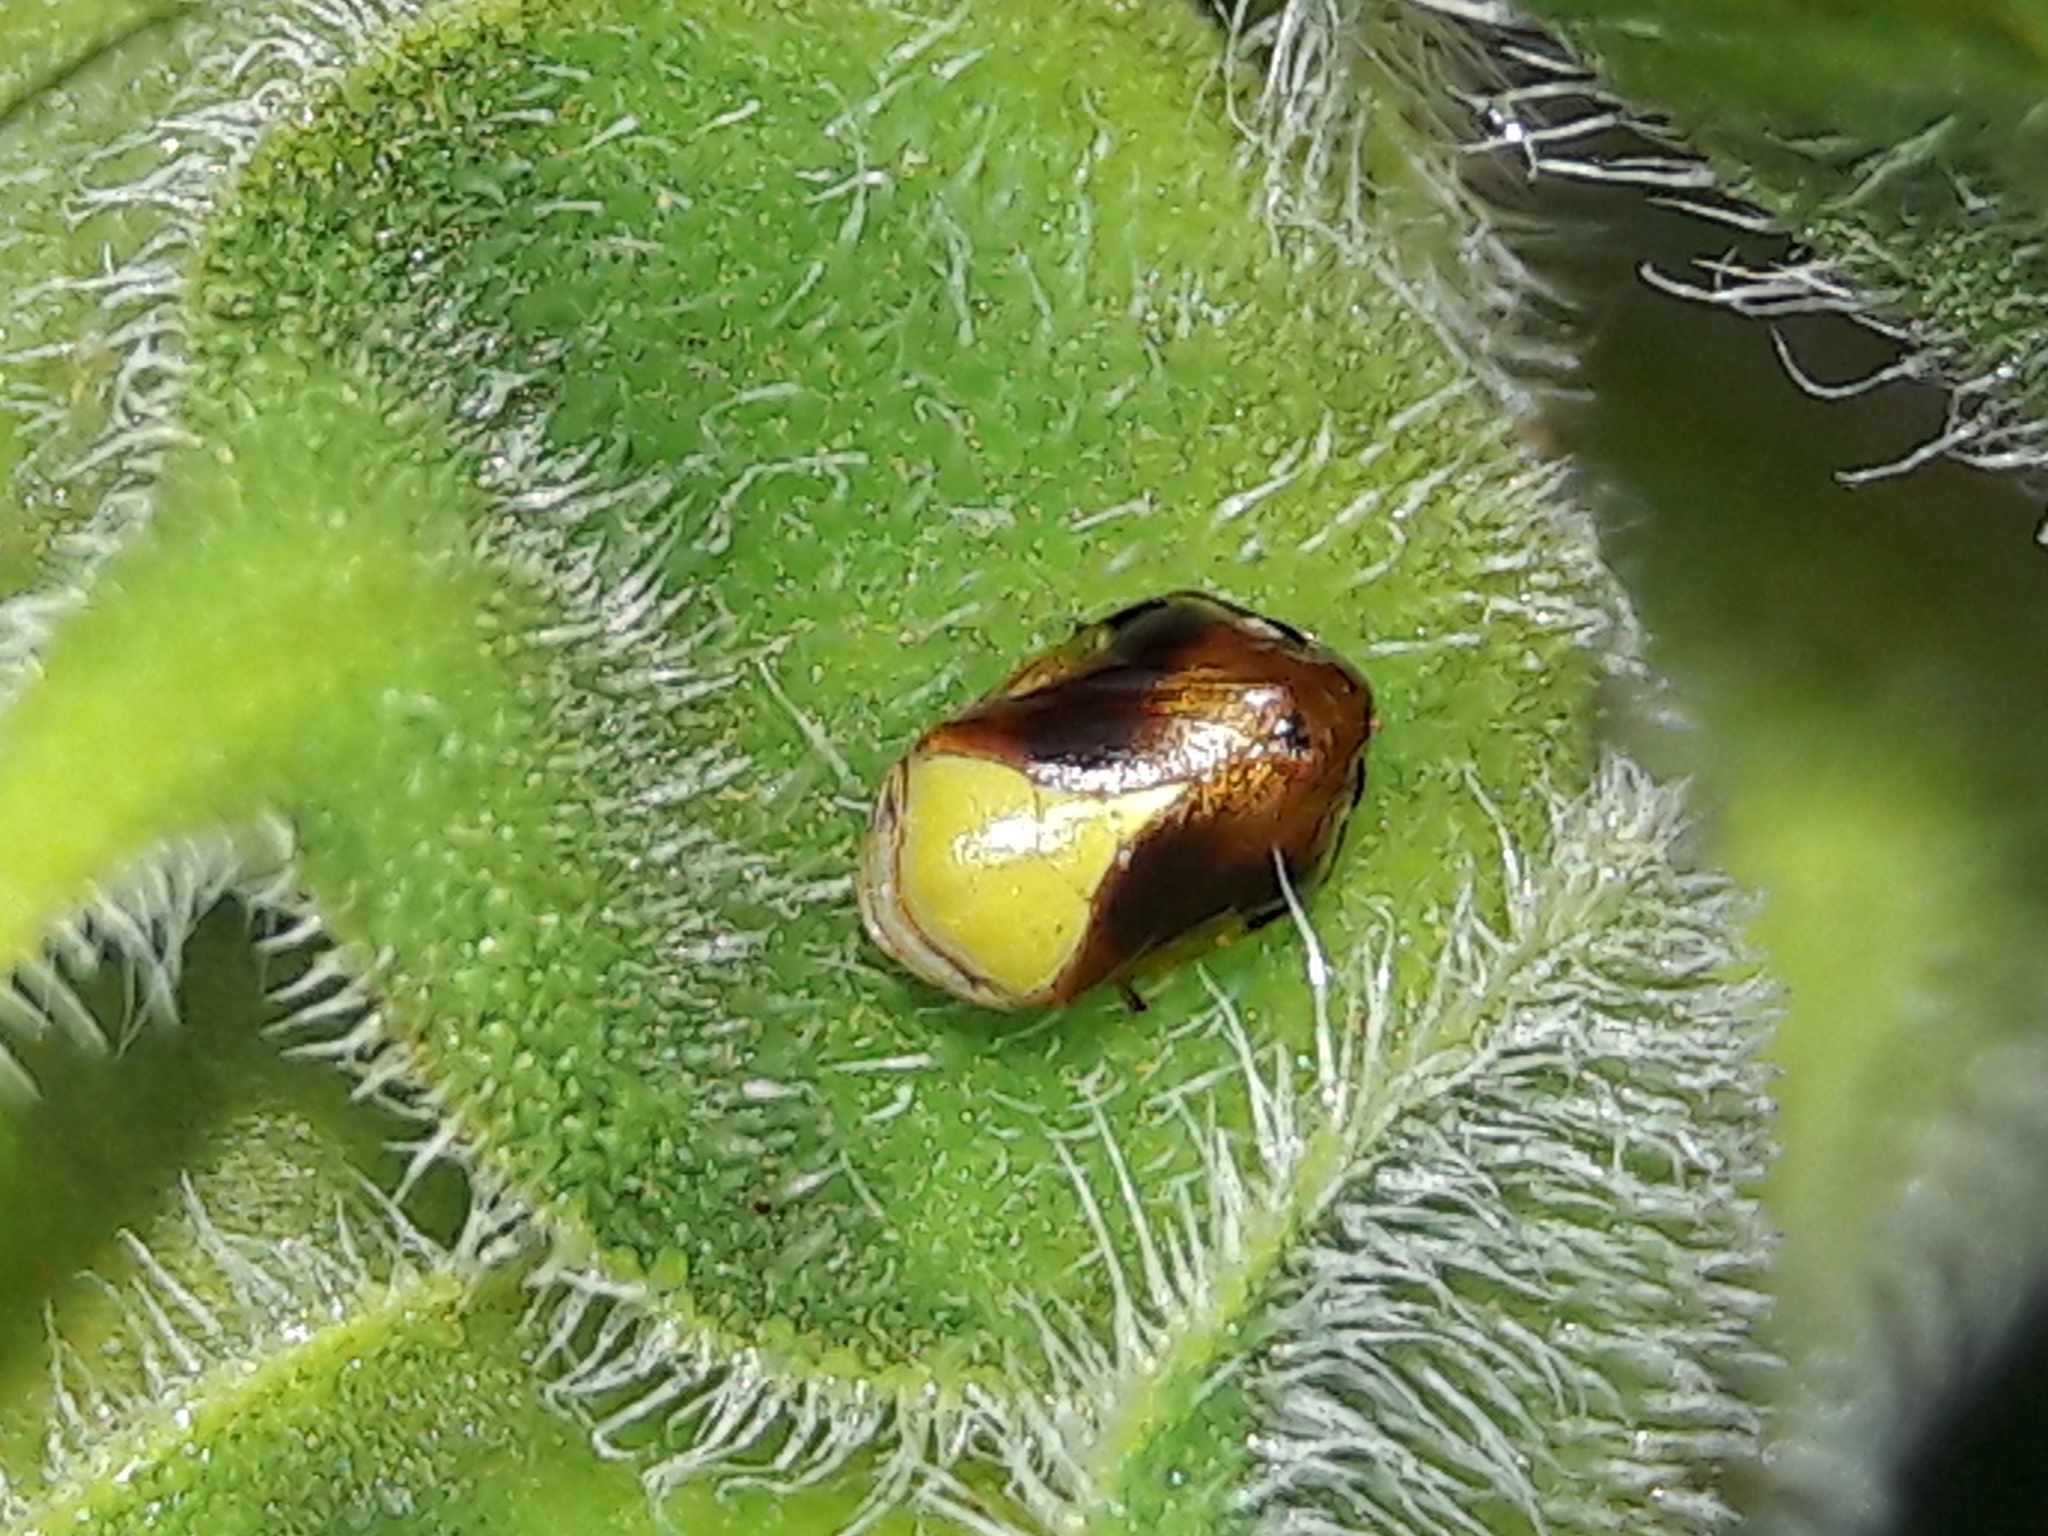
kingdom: Animalia
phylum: Arthropoda
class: Insecta
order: Hemiptera
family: Clastopteridae
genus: Clastoptera
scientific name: Clastoptera cimicoides
